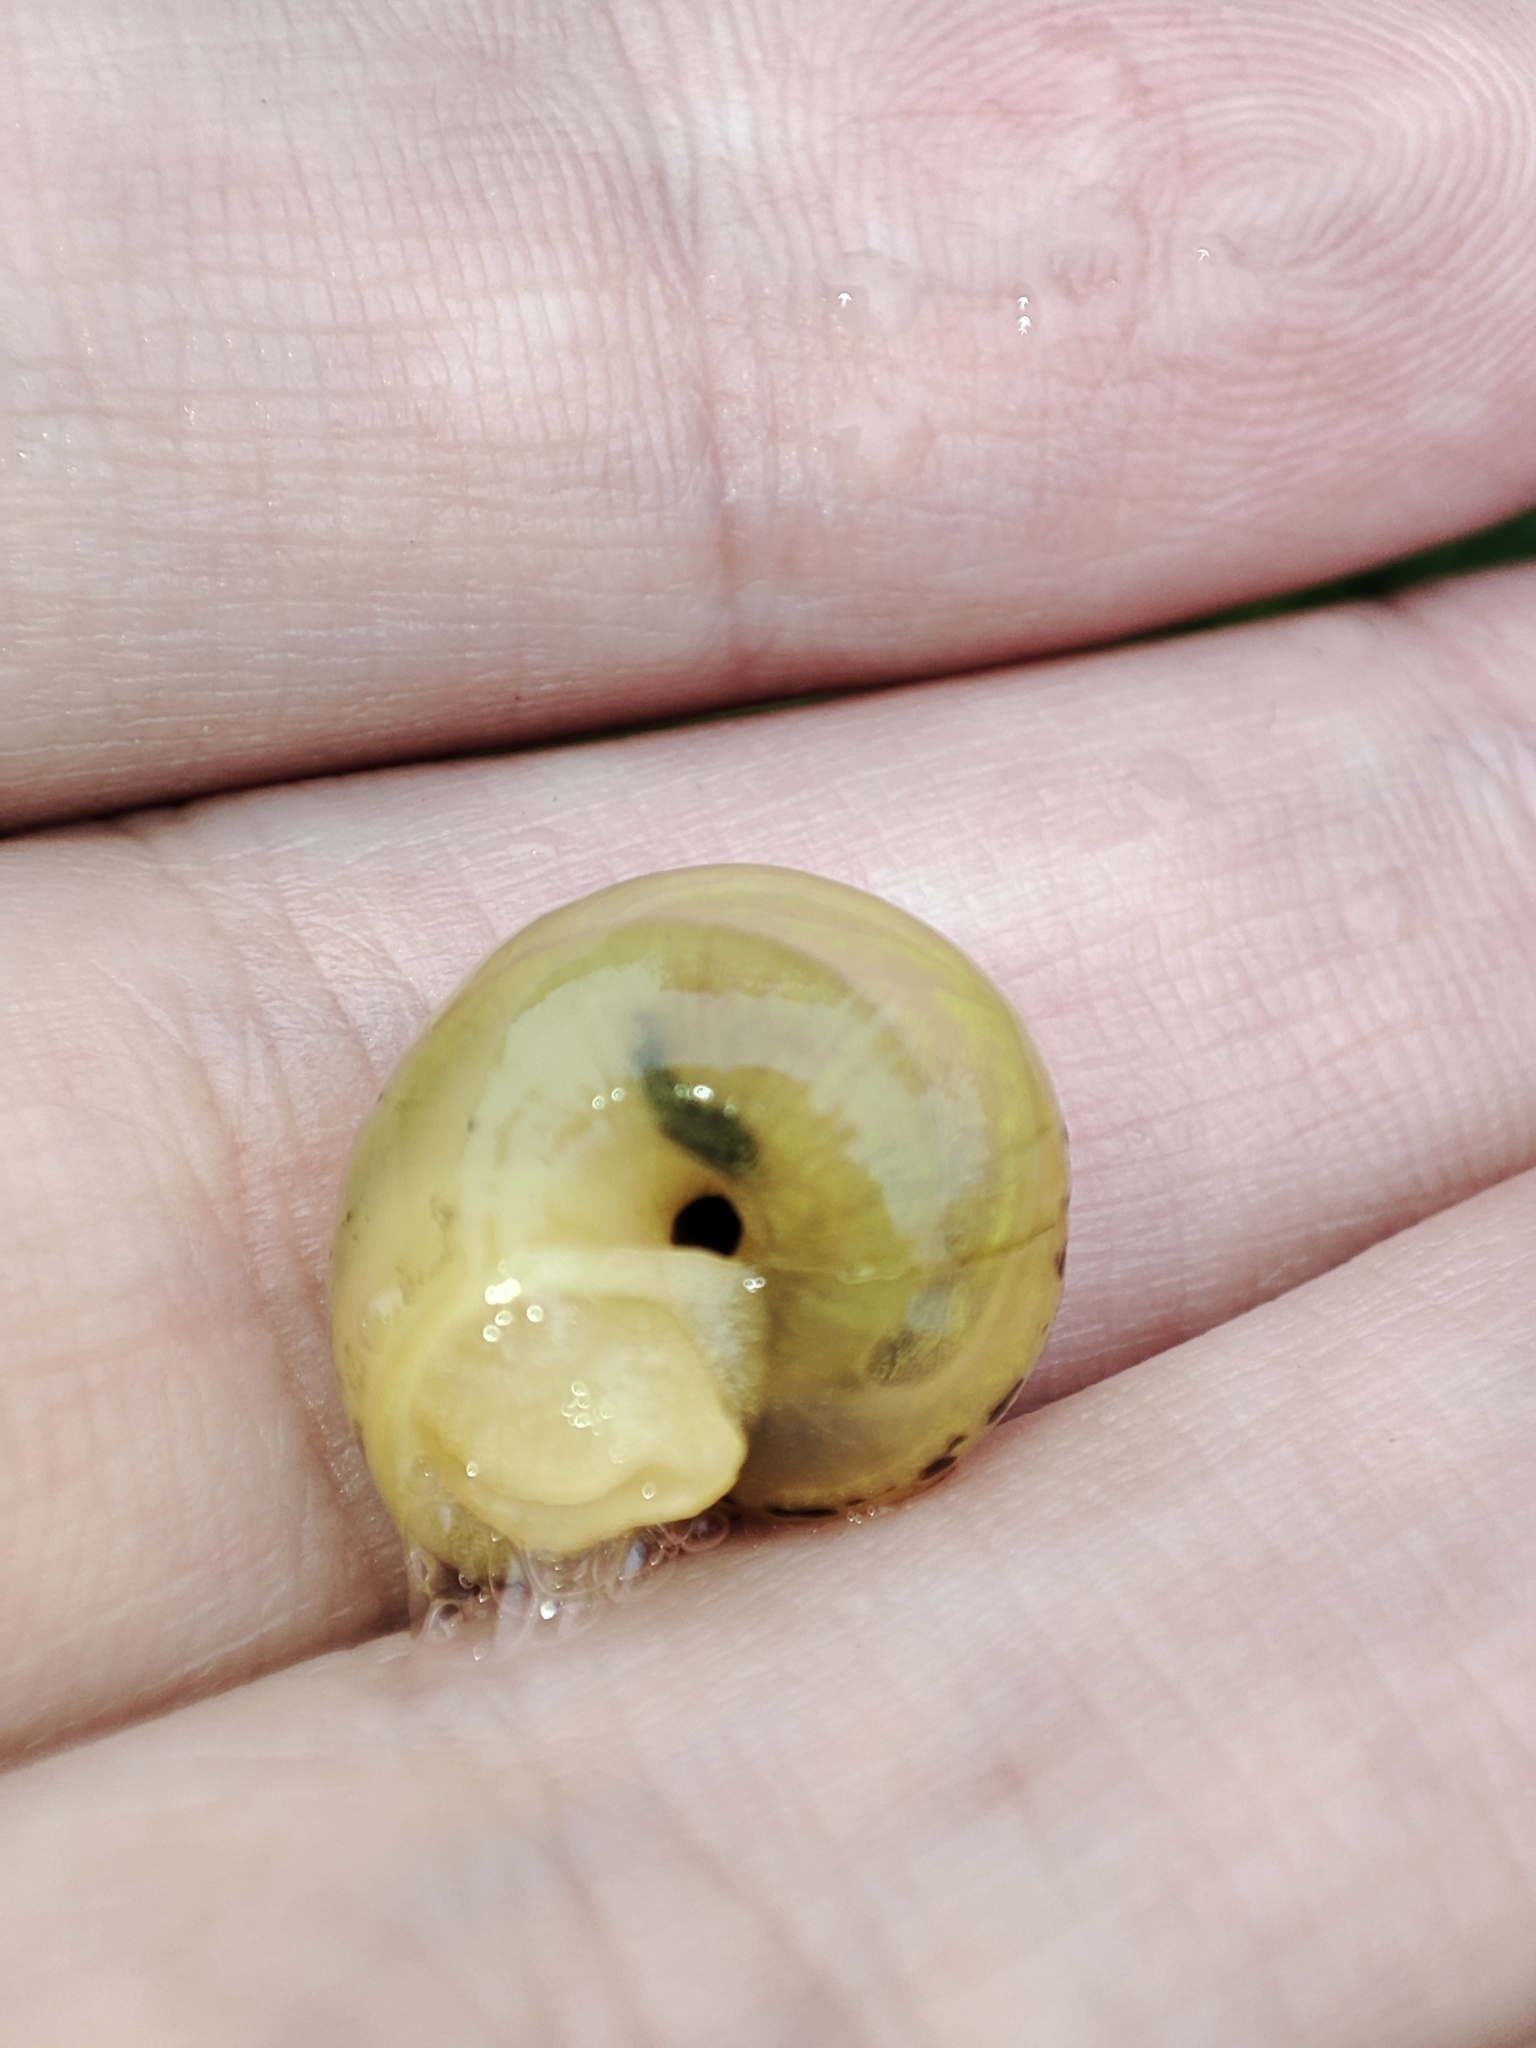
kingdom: Animalia
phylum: Mollusca
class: Gastropoda
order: Stylommatophora
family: Camaenidae
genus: Fruticicola
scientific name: Fruticicola fruticum
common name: Bush snail
